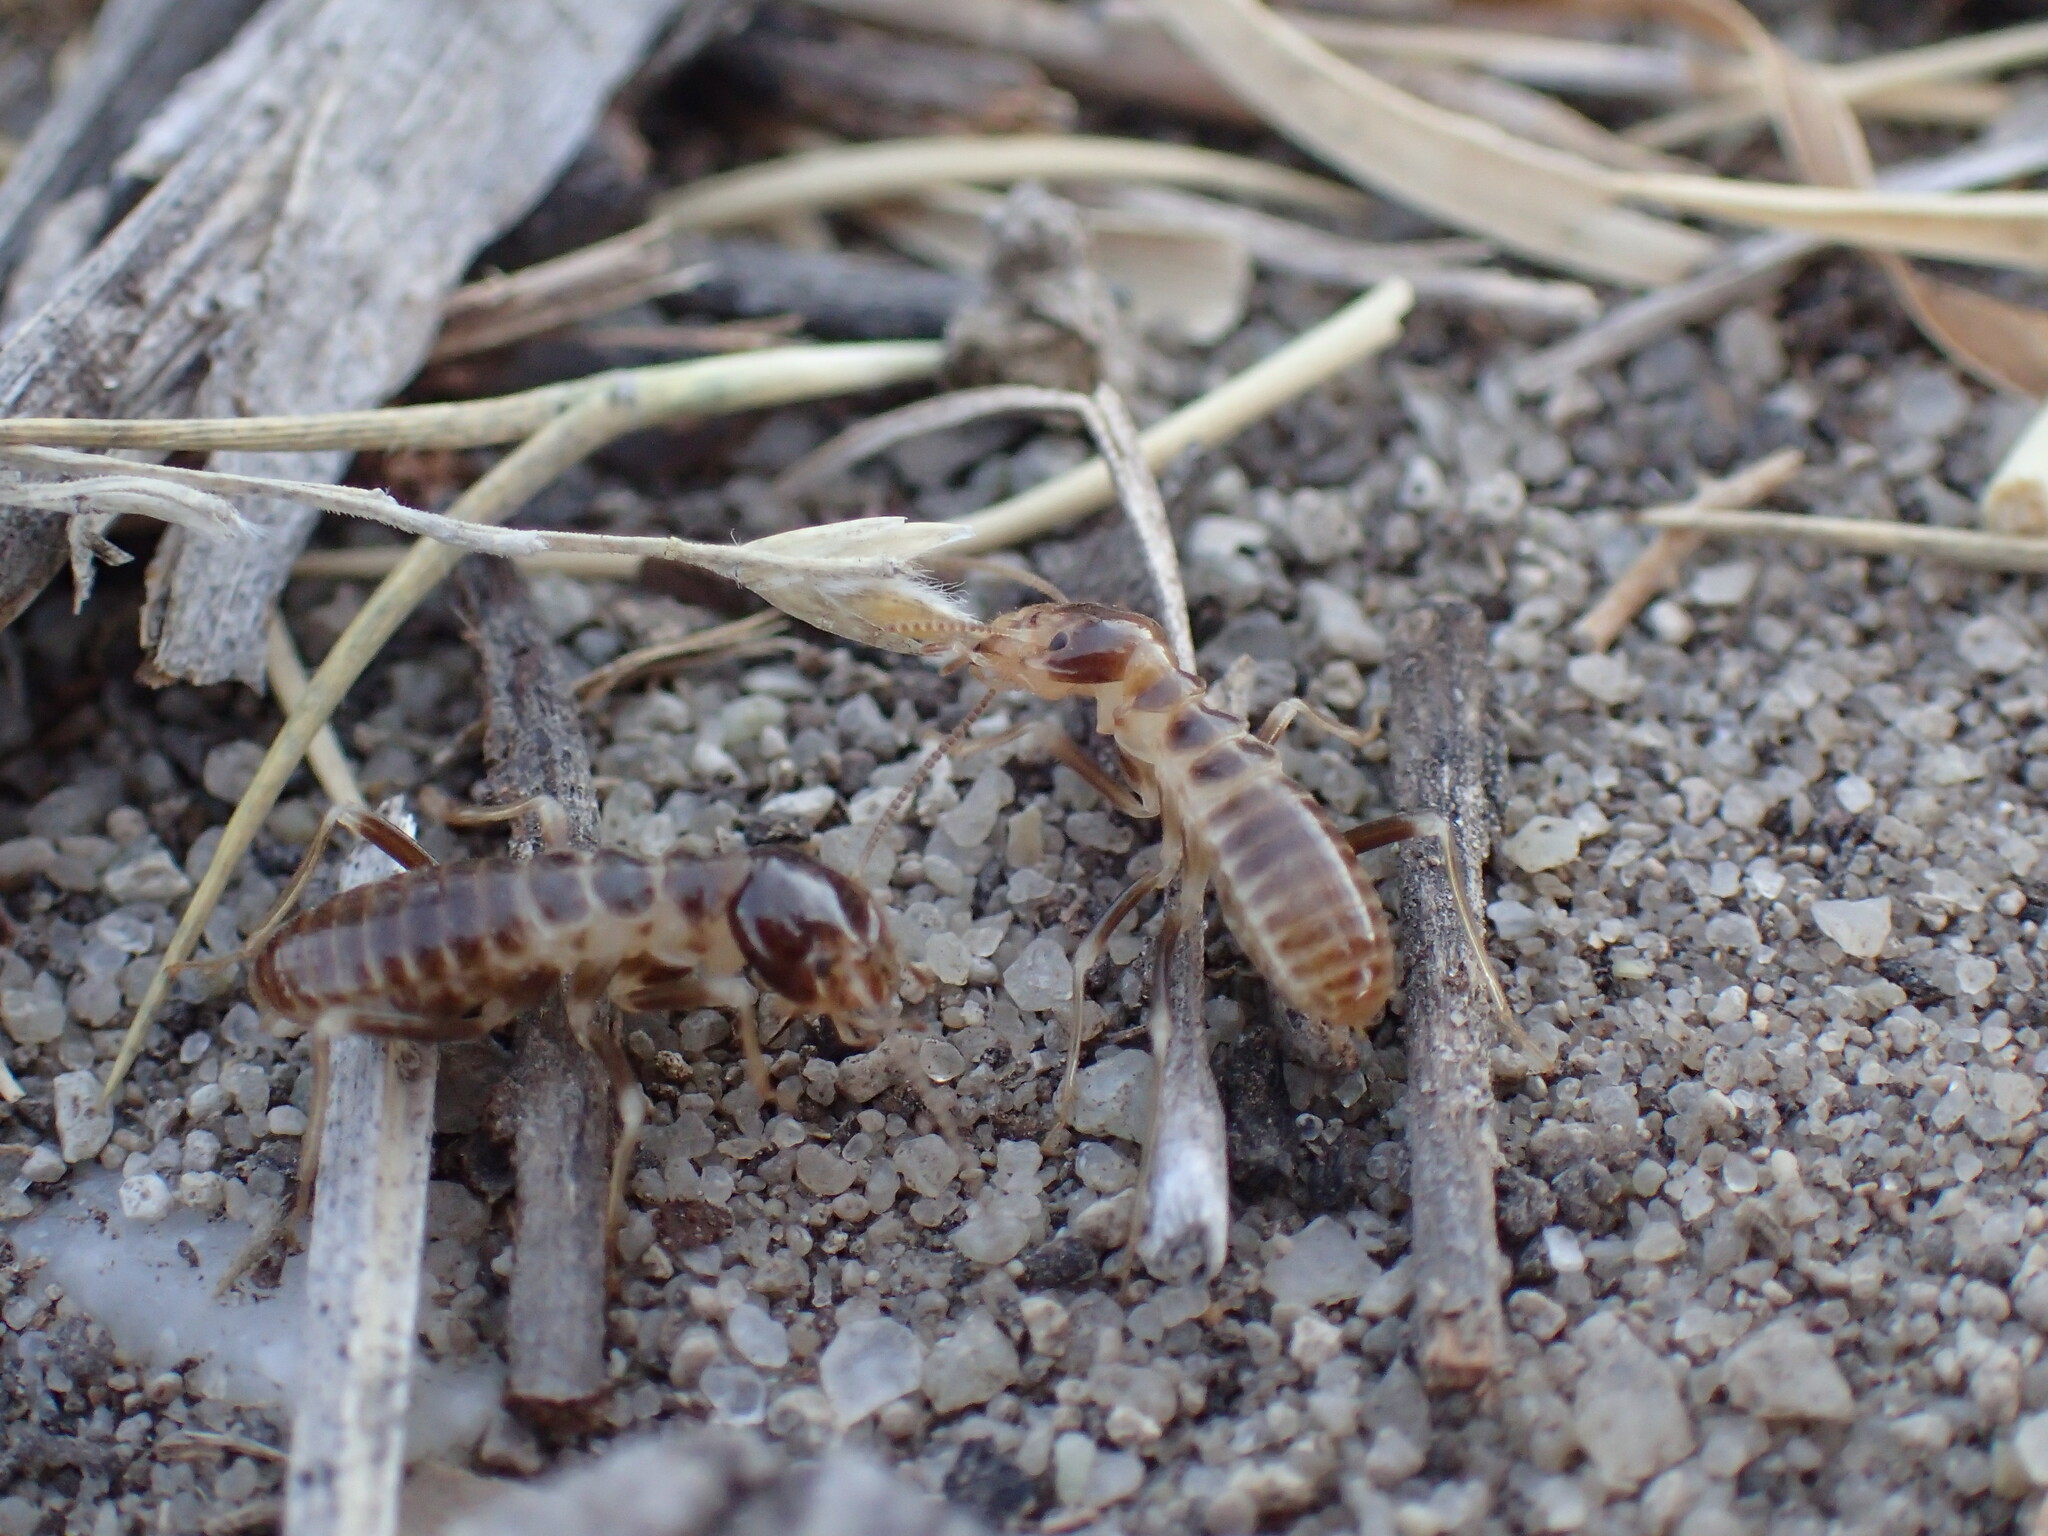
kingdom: Animalia
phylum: Arthropoda
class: Insecta
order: Blattodea
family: Hodotermitidae
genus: Hodotermes
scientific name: Hodotermes mossambicus
